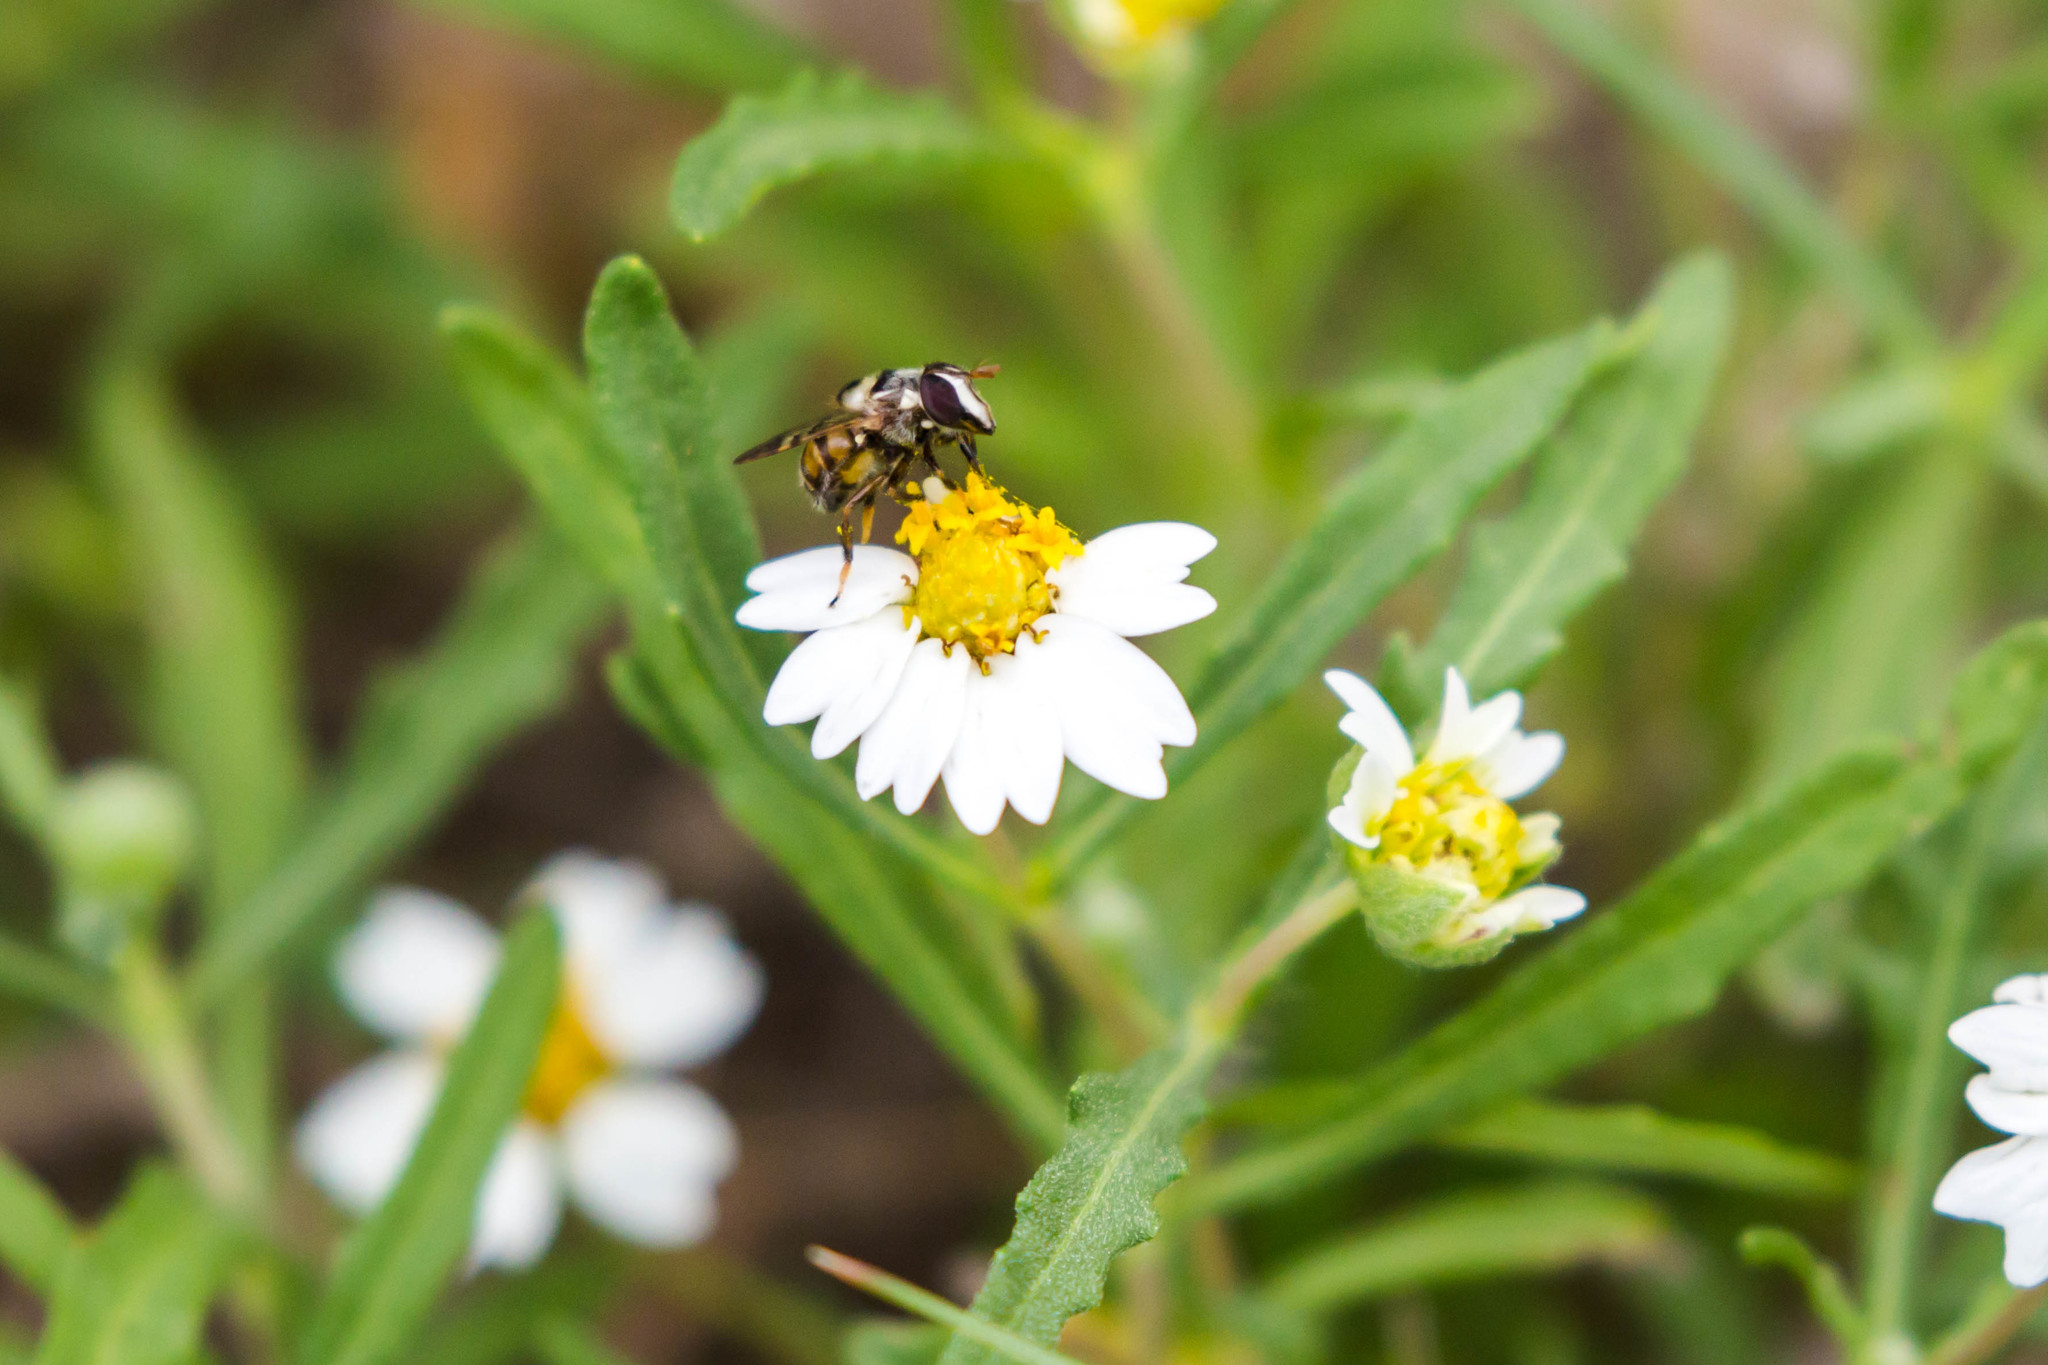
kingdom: Animalia
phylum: Arthropoda
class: Insecta
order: Diptera
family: Syrphidae
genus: Copestylum
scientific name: Copestylum tamaulipanum
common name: Syrphid fly
